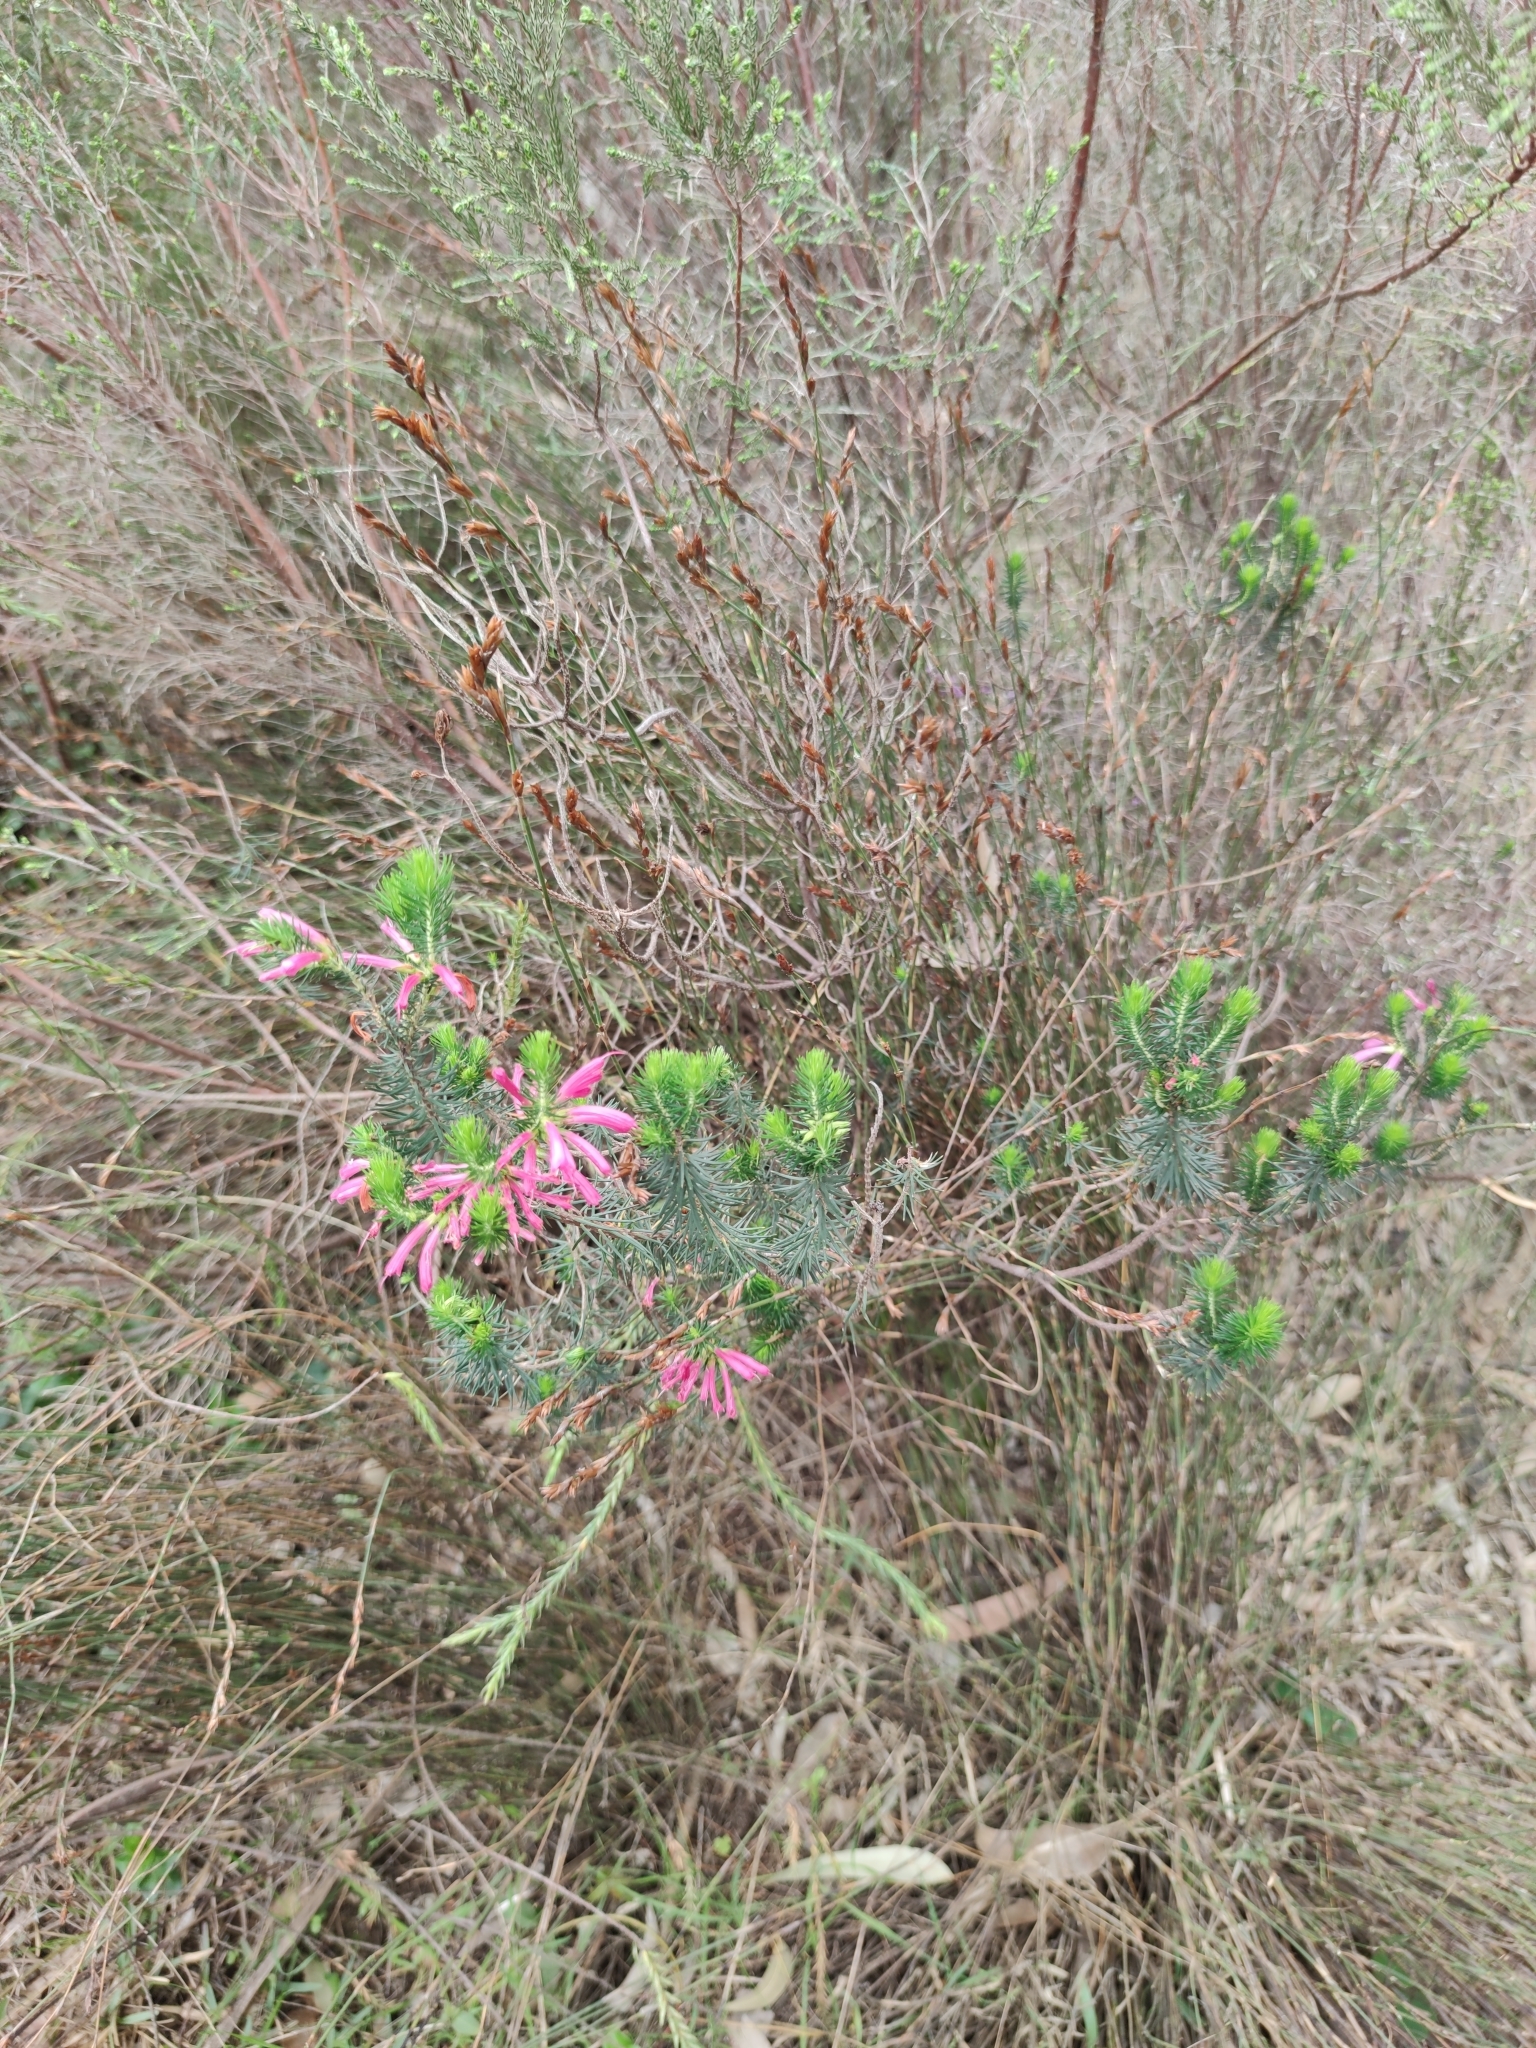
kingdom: Plantae
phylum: Tracheophyta
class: Magnoliopsida
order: Ericales
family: Ericaceae
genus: Erica
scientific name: Erica abietina
